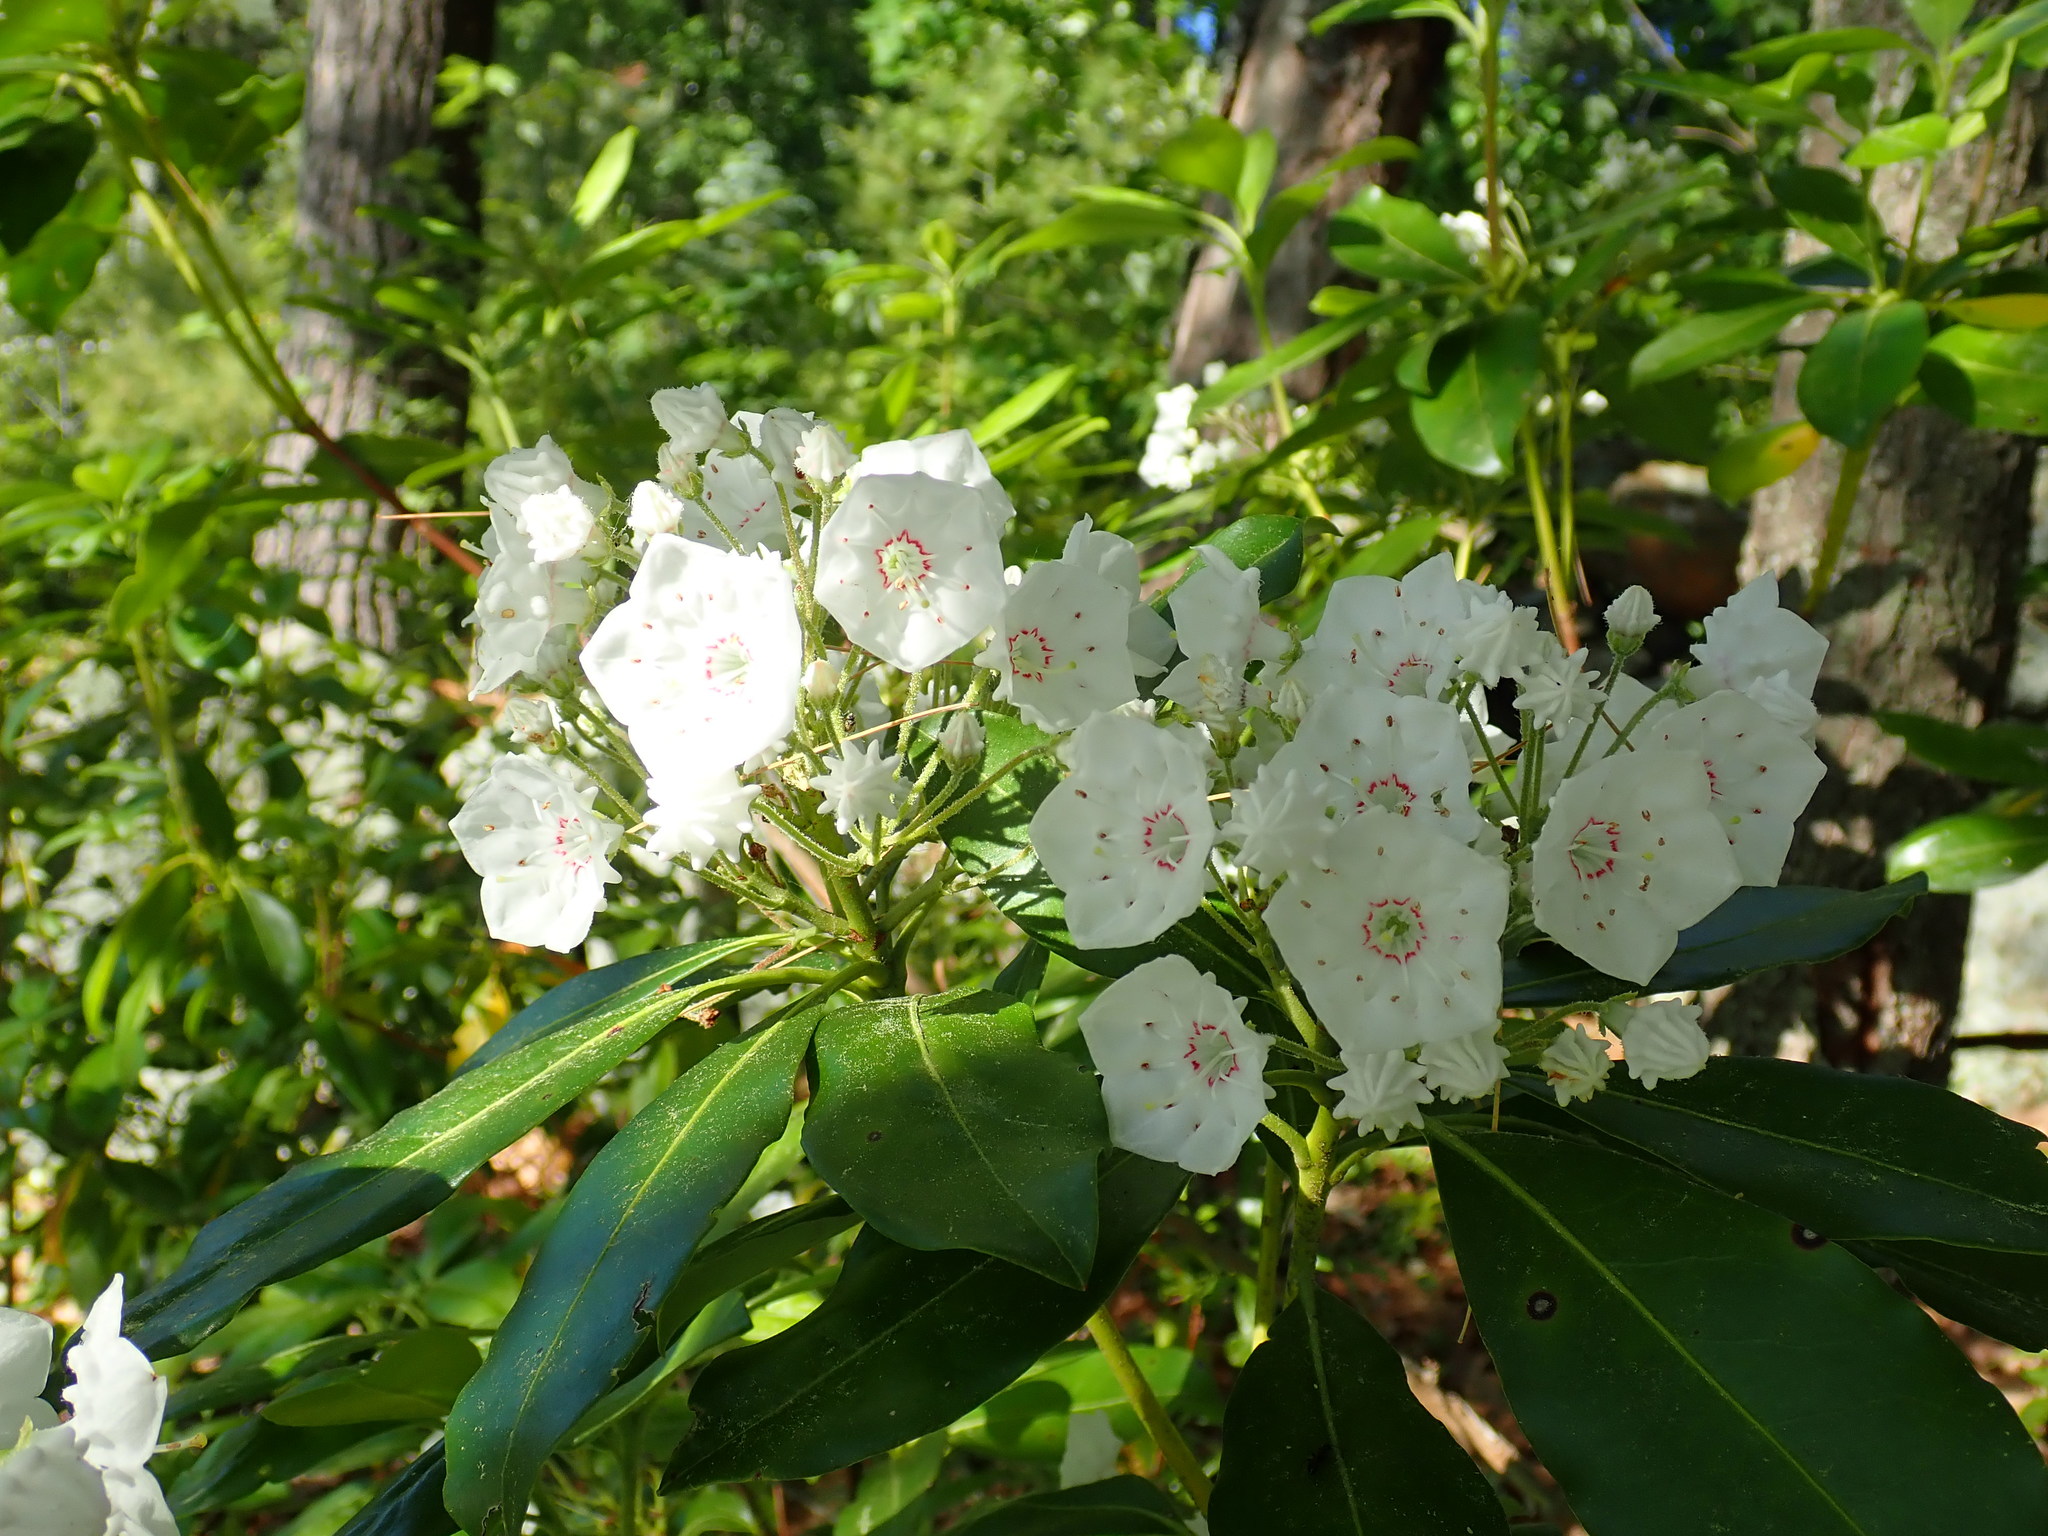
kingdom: Plantae
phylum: Tracheophyta
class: Magnoliopsida
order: Ericales
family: Ericaceae
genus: Kalmia
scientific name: Kalmia latifolia
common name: Mountain-laurel
